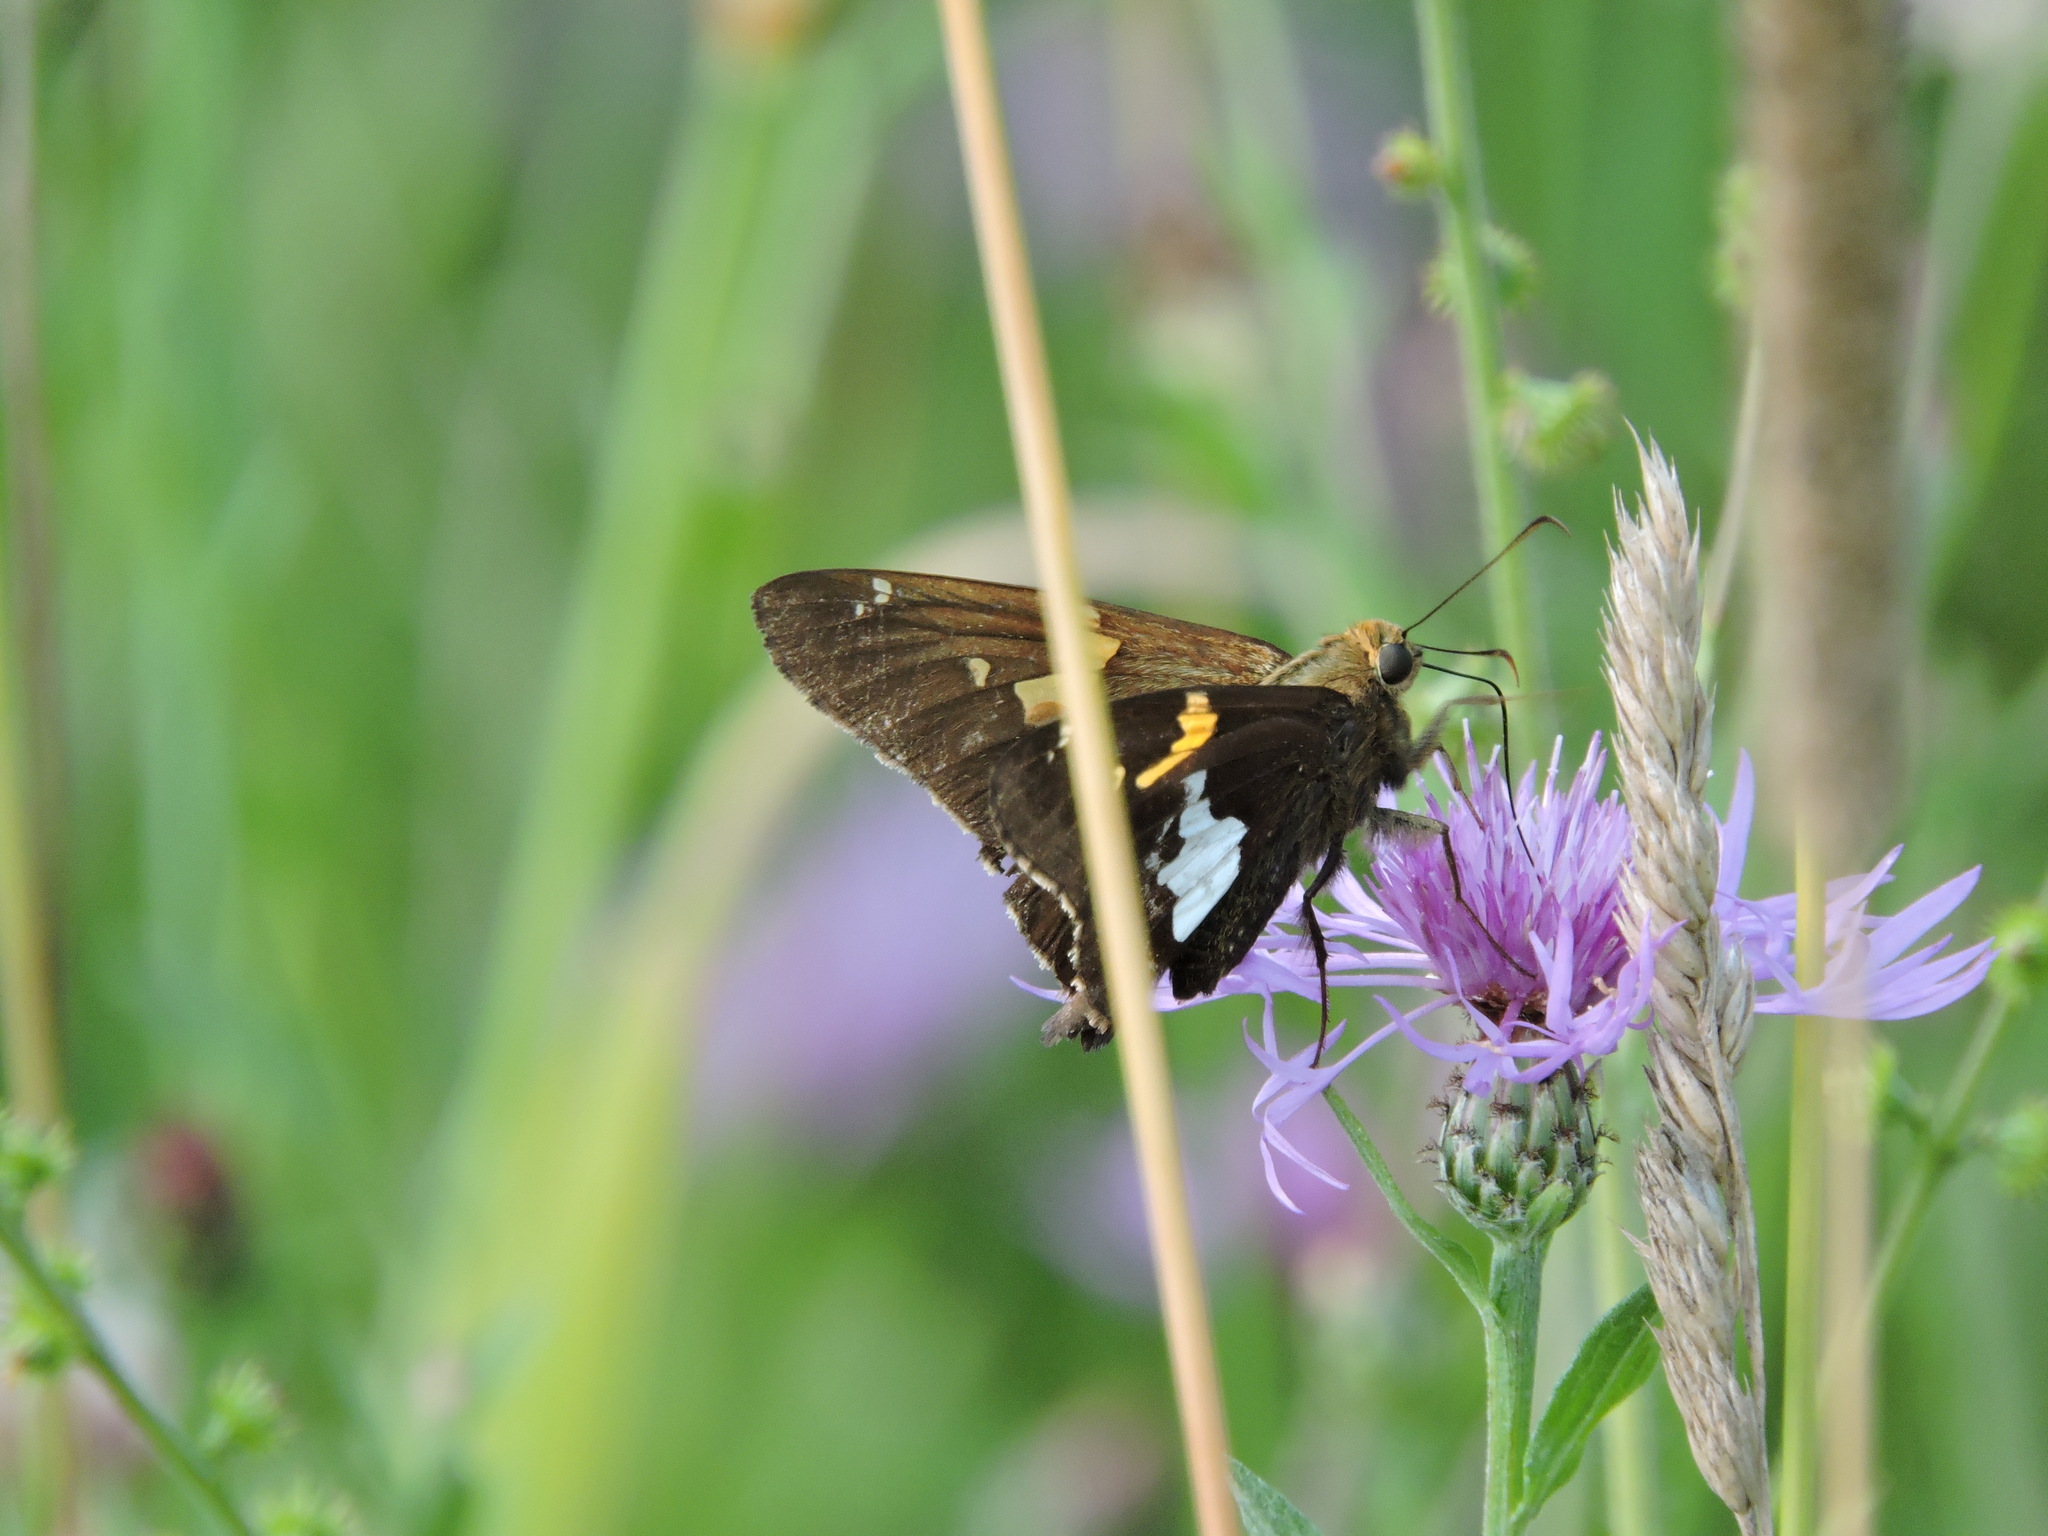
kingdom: Animalia
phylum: Arthropoda
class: Insecta
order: Lepidoptera
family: Hesperiidae
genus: Epargyreus
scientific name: Epargyreus clarus
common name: Silver-spotted skipper
